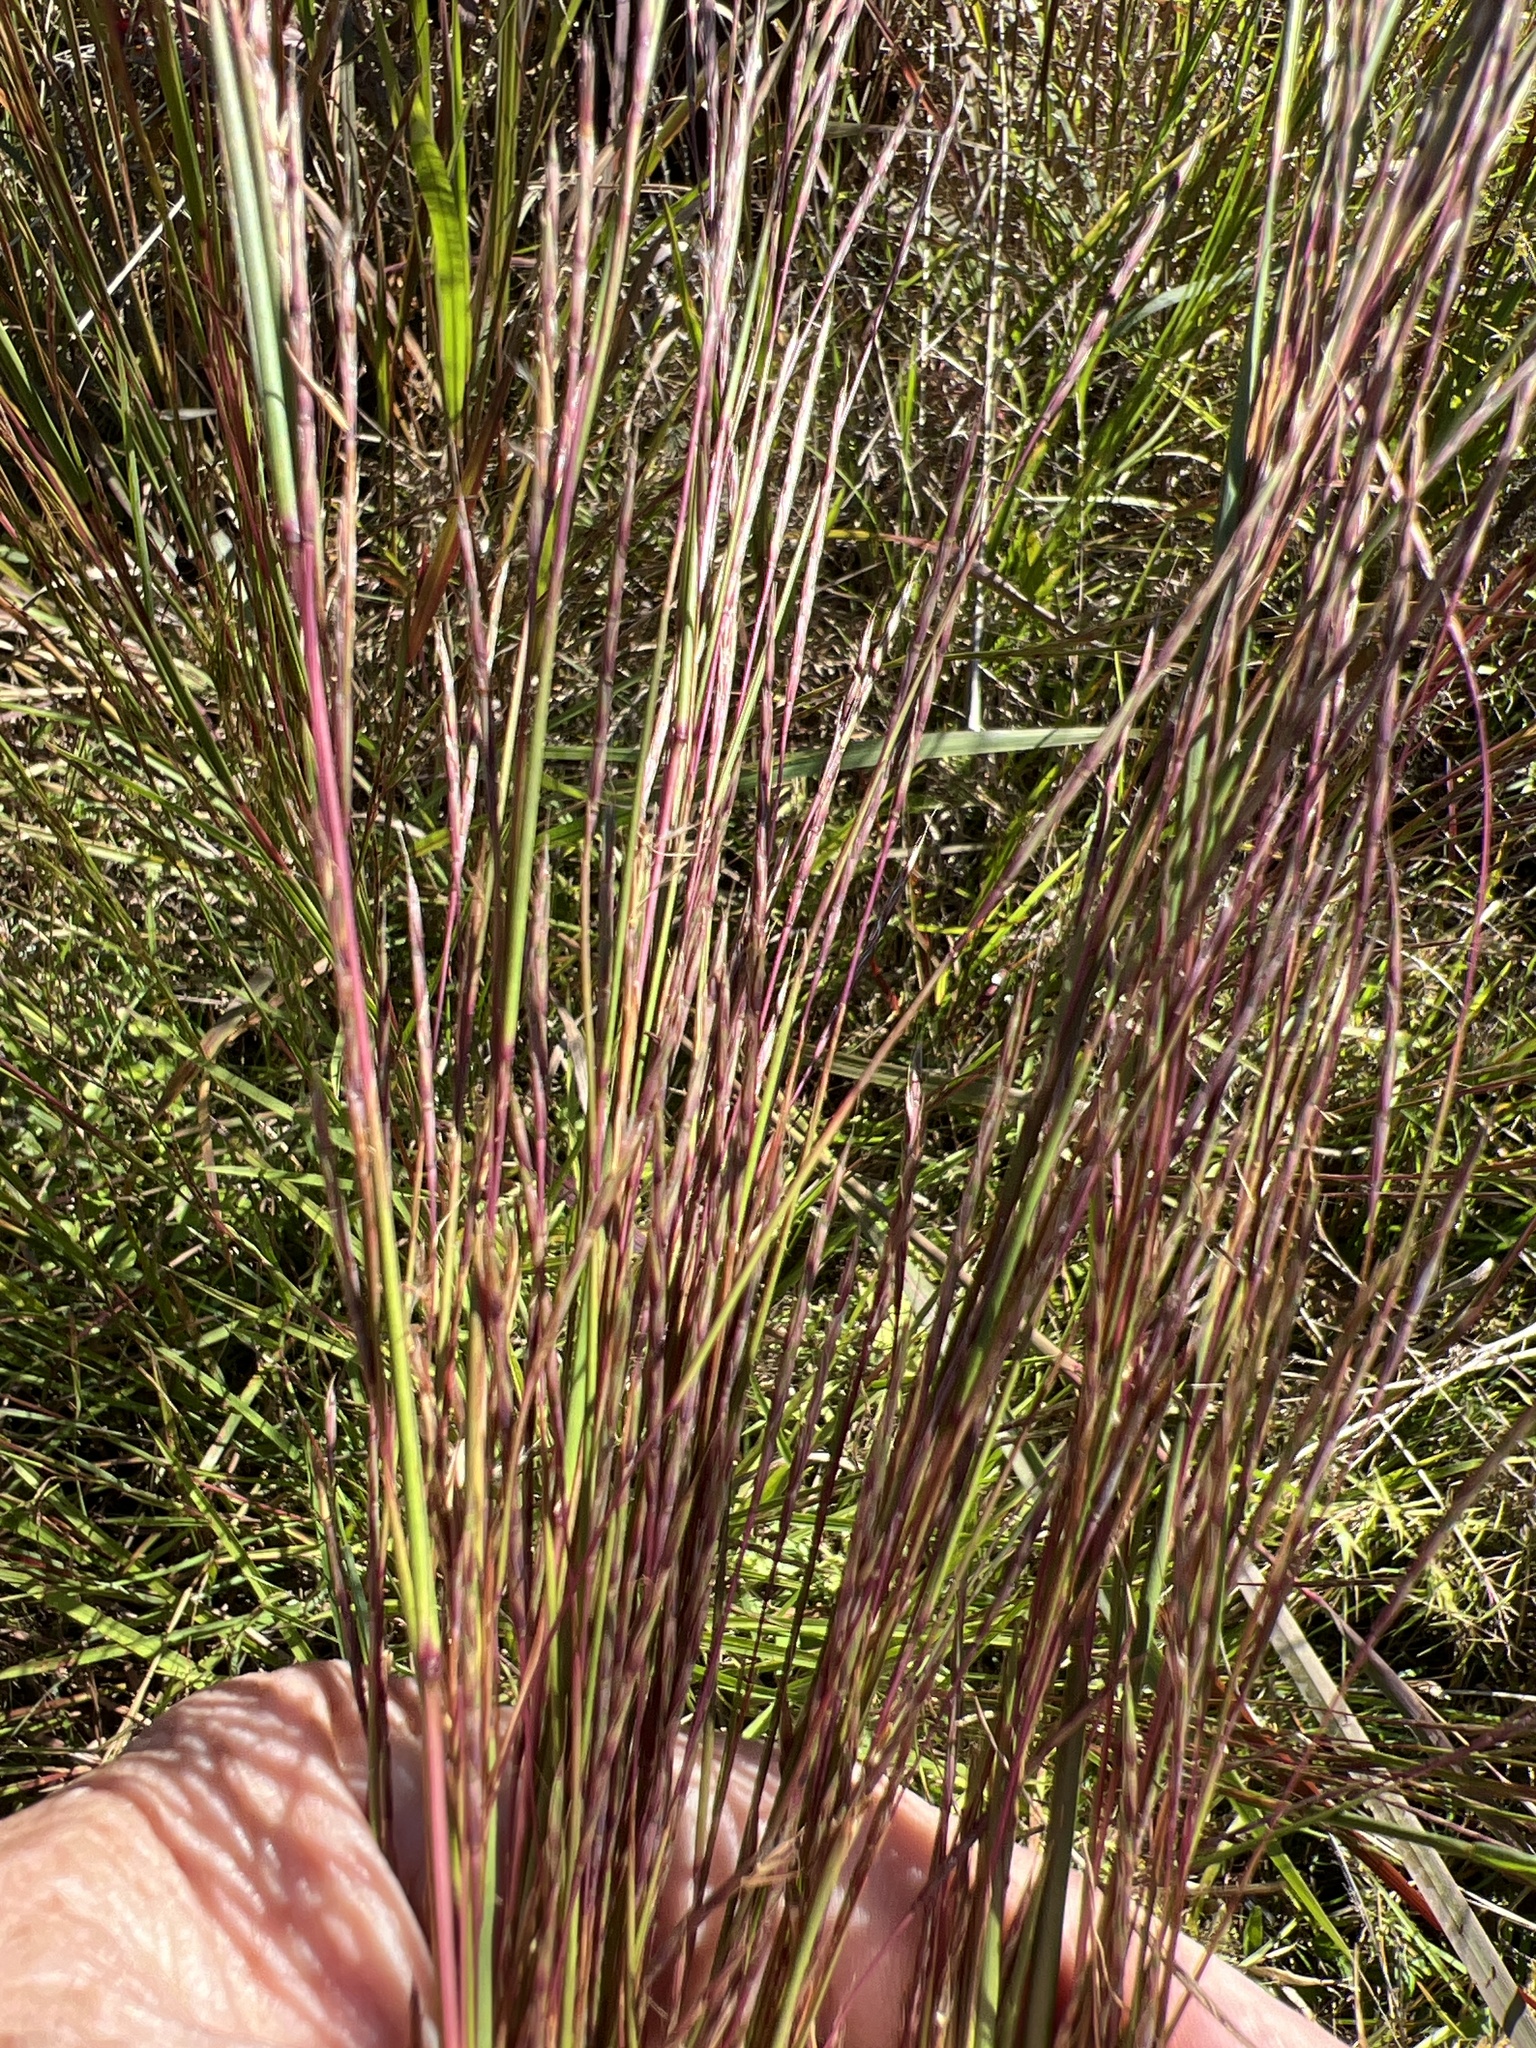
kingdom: Plantae
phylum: Tracheophyta
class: Liliopsida
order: Poales
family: Poaceae
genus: Schizachyrium
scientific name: Schizachyrium scoparium
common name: Little bluestem
